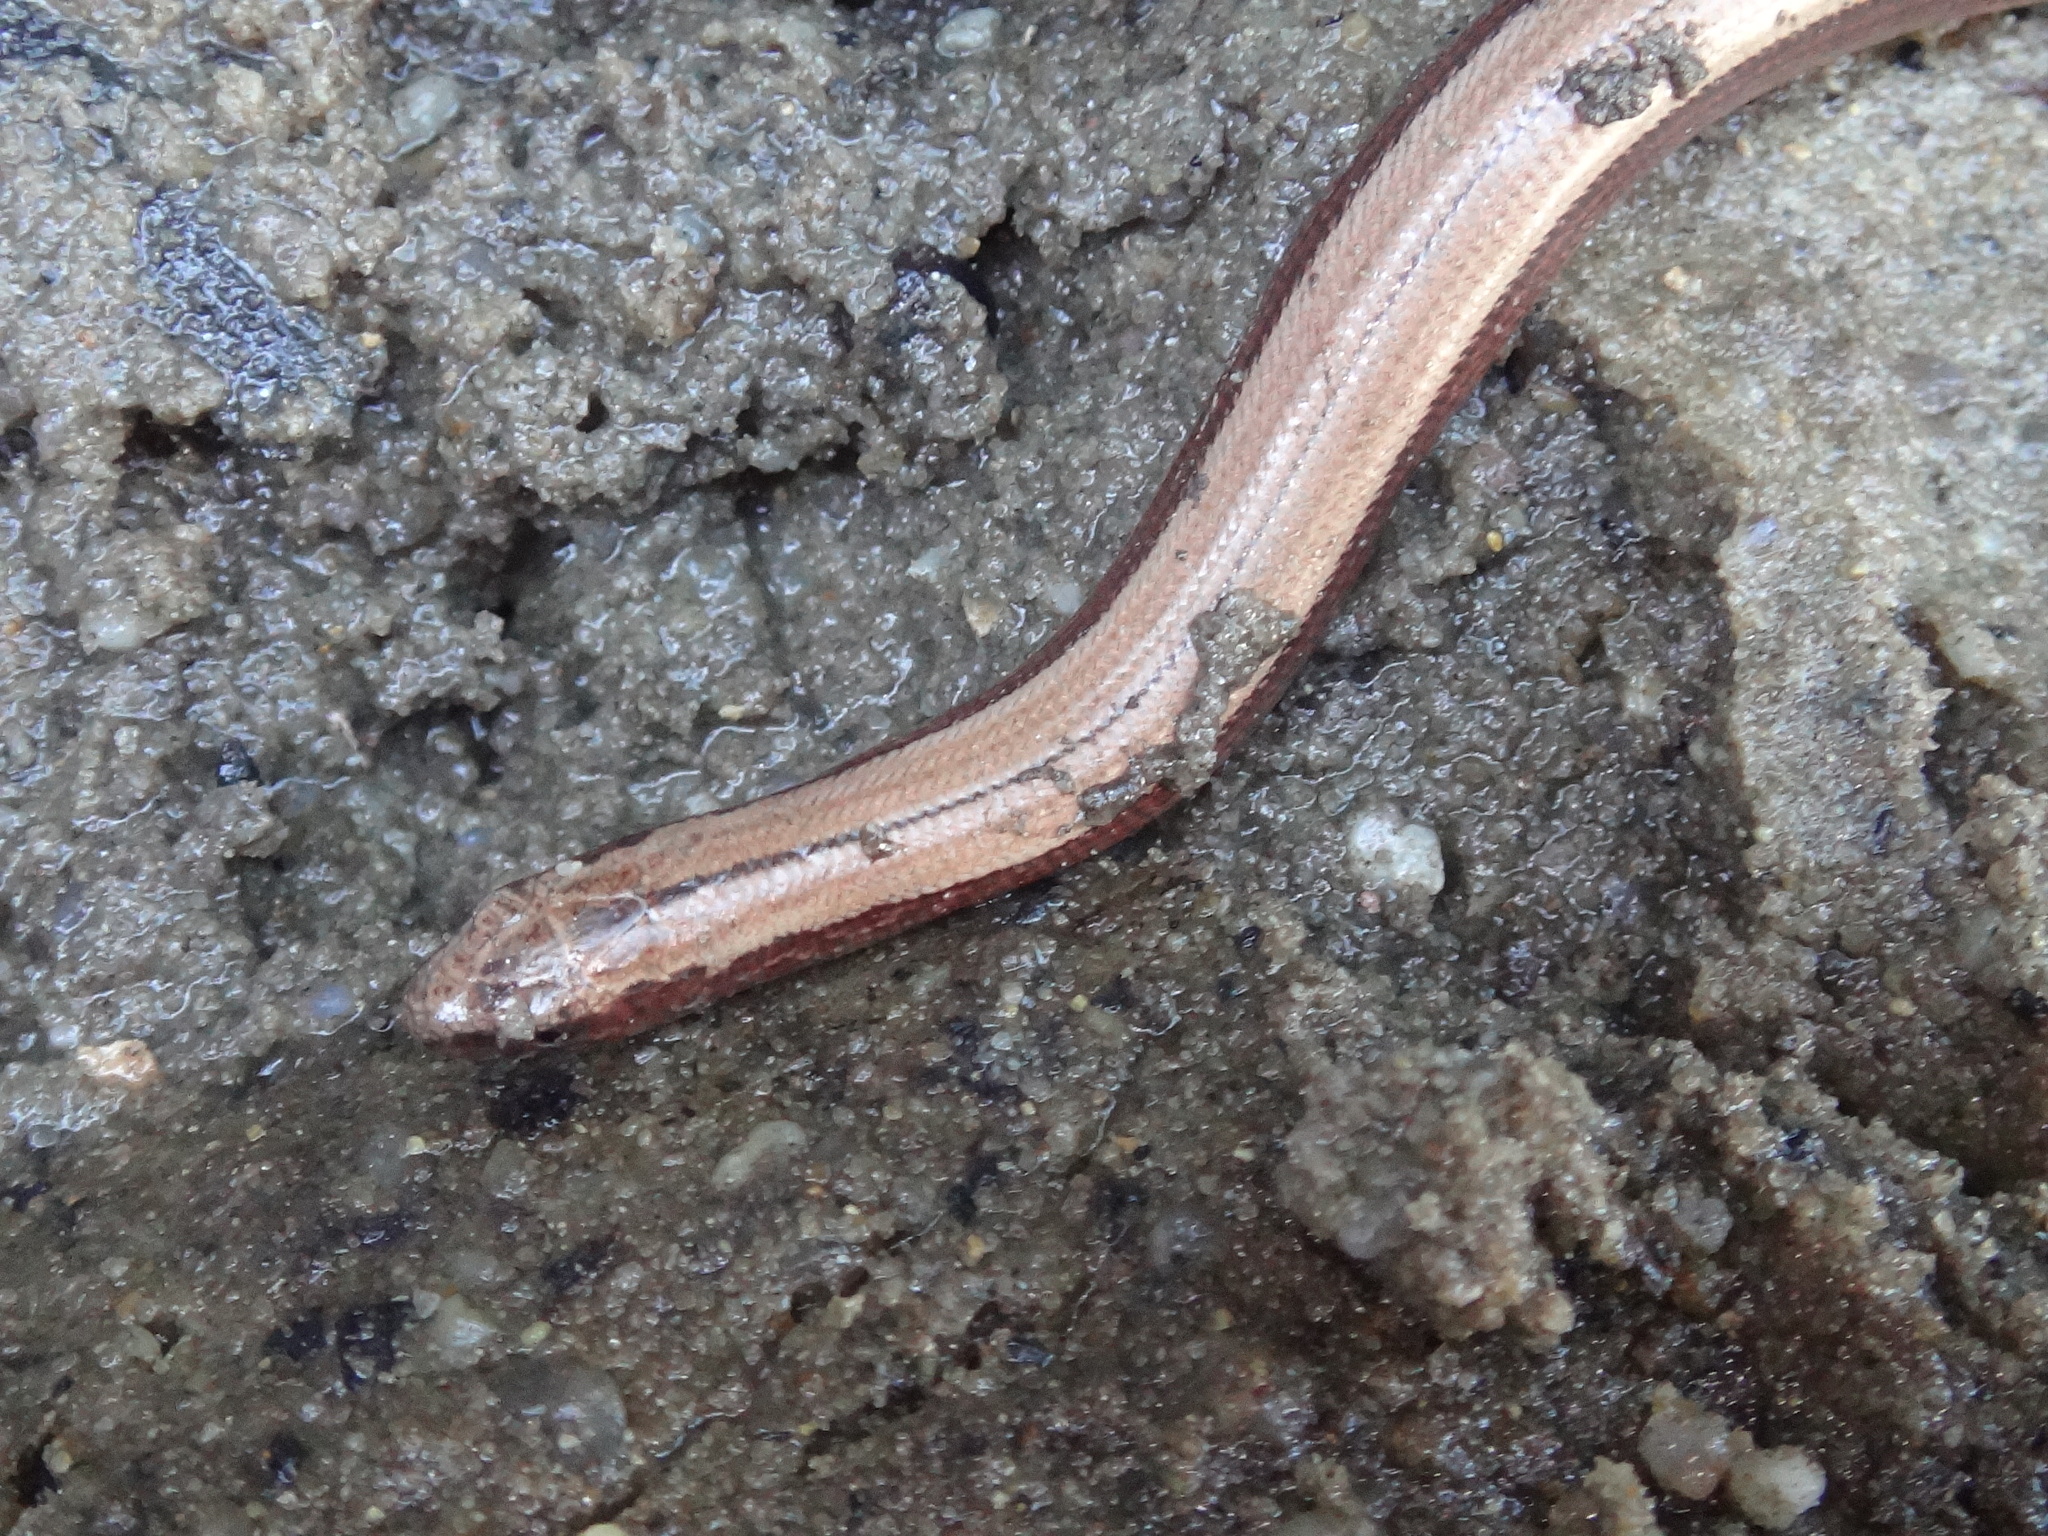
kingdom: Animalia
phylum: Chordata
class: Squamata
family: Anguidae
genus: Anguis
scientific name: Anguis fragilis
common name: Slow worm
